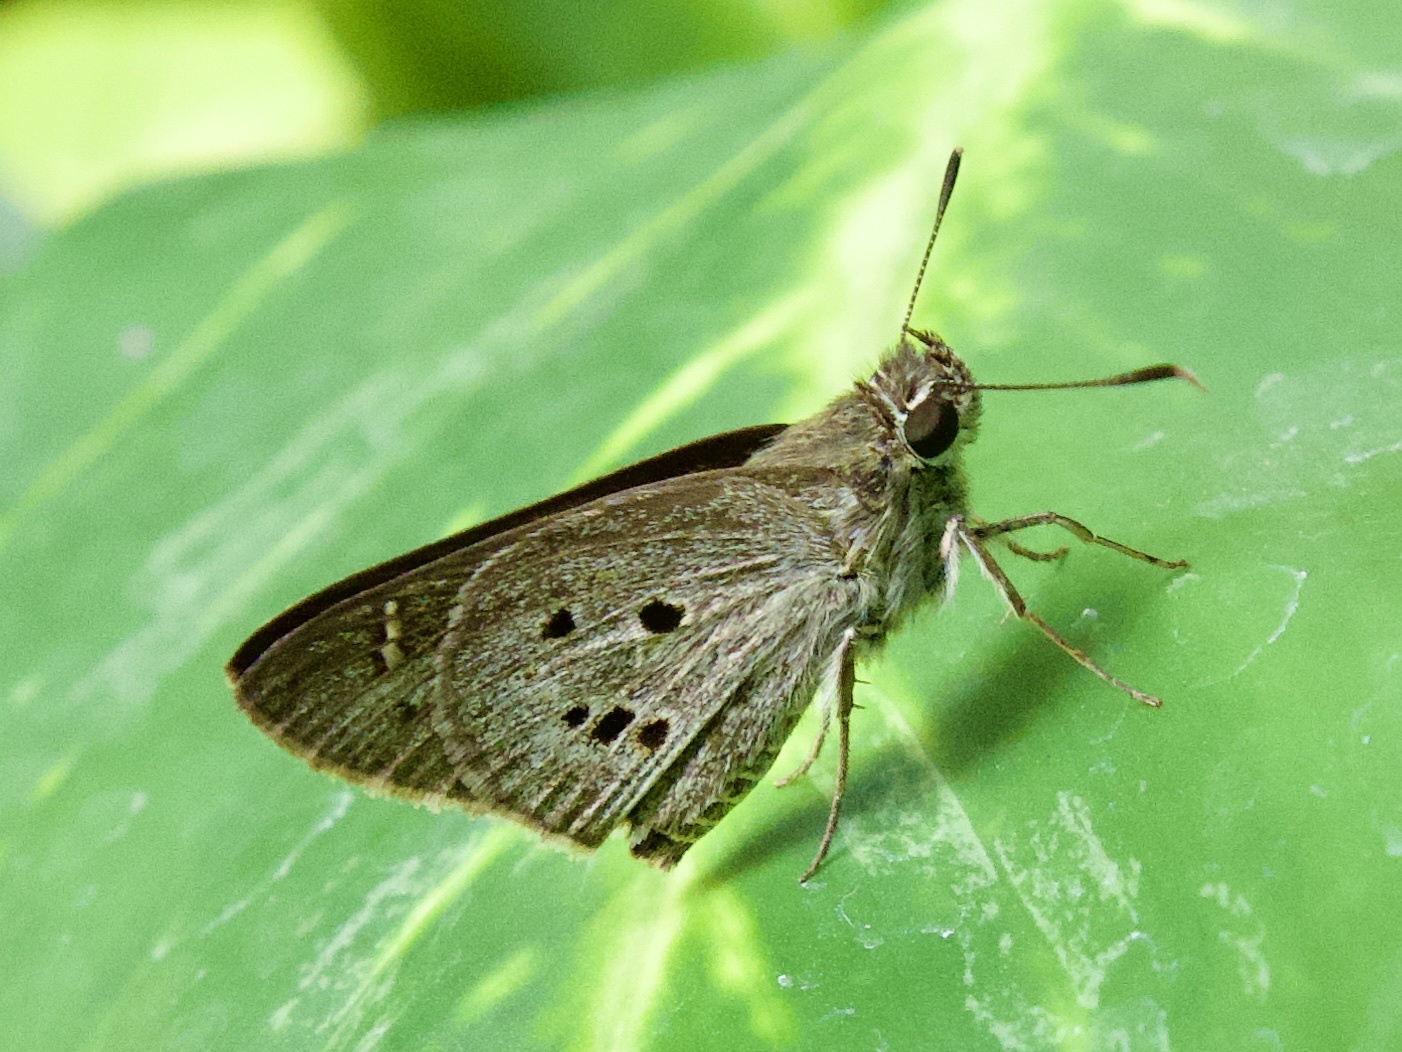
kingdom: Animalia
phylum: Arthropoda
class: Insecta
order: Lepidoptera
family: Hesperiidae
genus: Suastus
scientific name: Suastus gremius
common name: Indian palm bob
